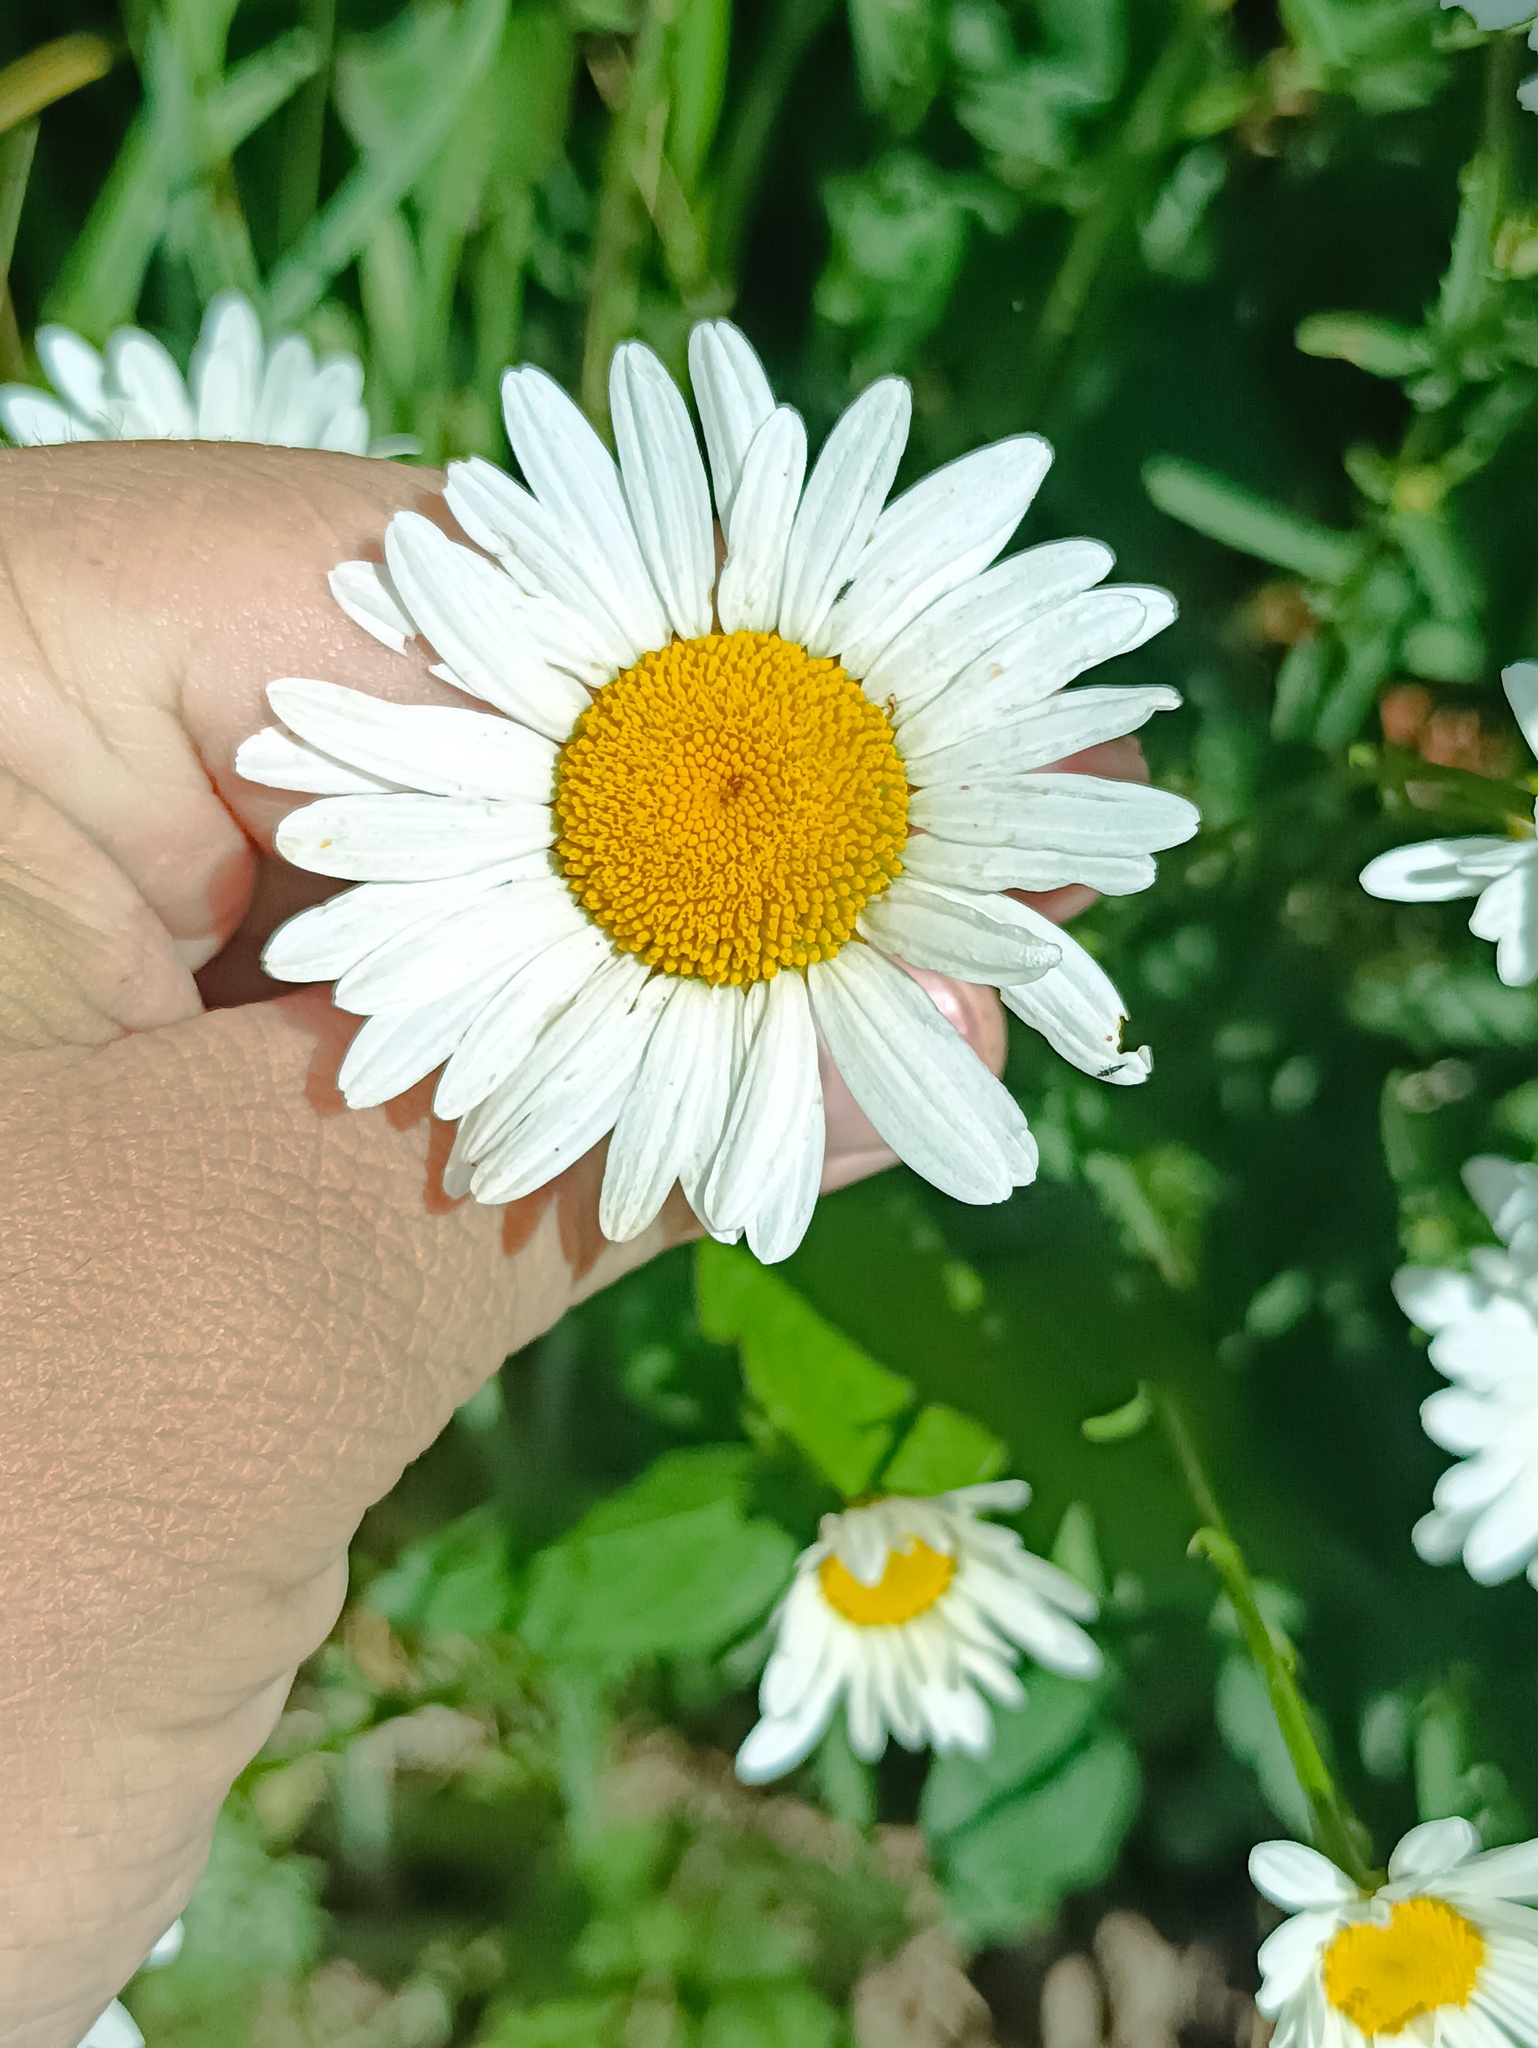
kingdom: Plantae
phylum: Tracheophyta
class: Magnoliopsida
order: Asterales
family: Asteraceae
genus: Leucanthemum
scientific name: Leucanthemum vulgare
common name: Oxeye daisy
